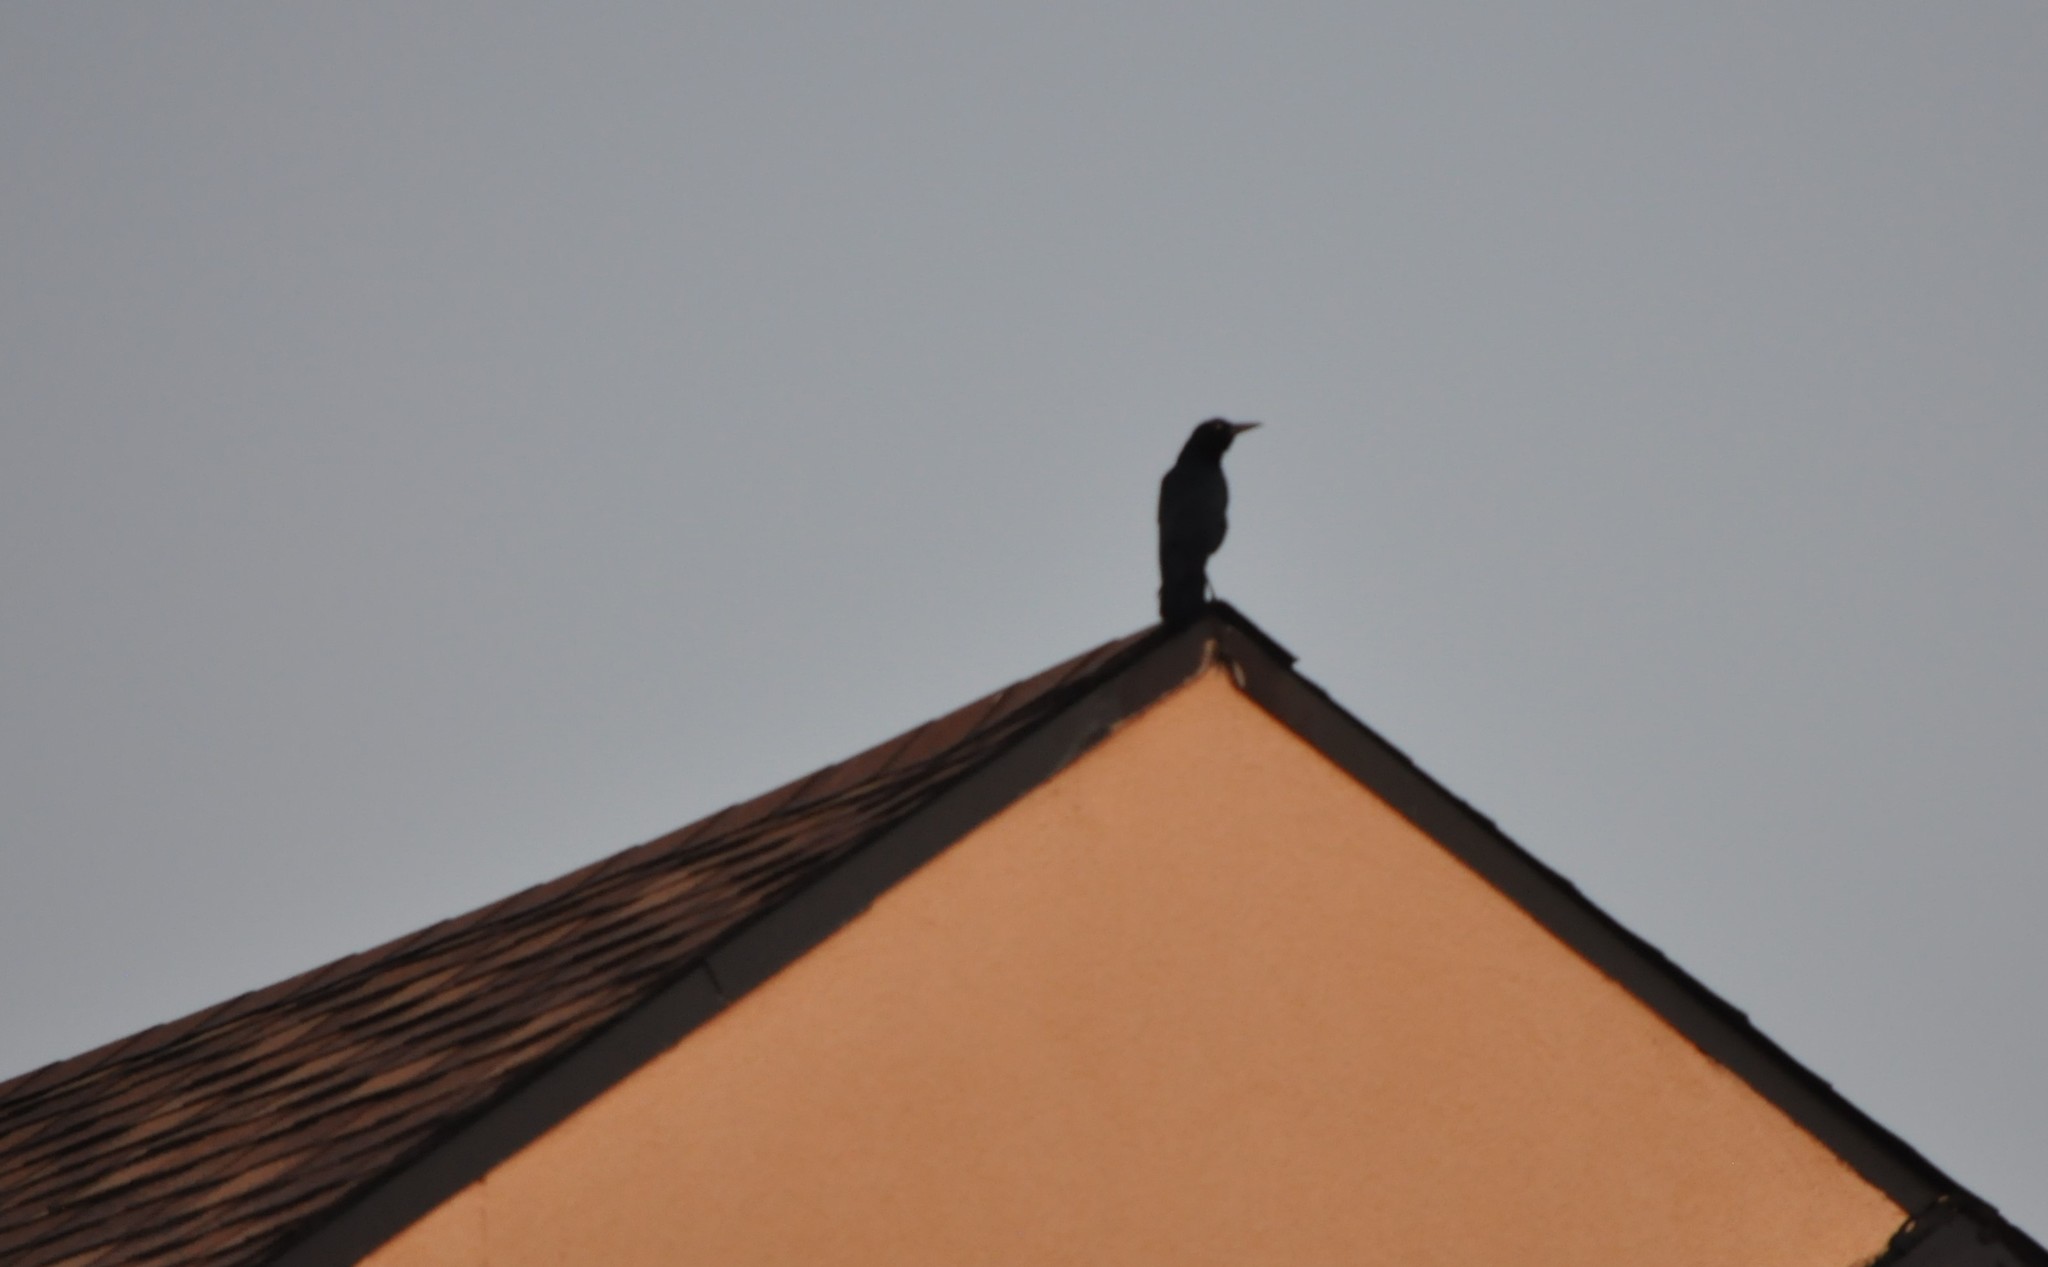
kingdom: Animalia
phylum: Chordata
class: Aves
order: Passeriformes
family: Icteridae
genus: Quiscalus
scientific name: Quiscalus major
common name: Boat-tailed grackle
